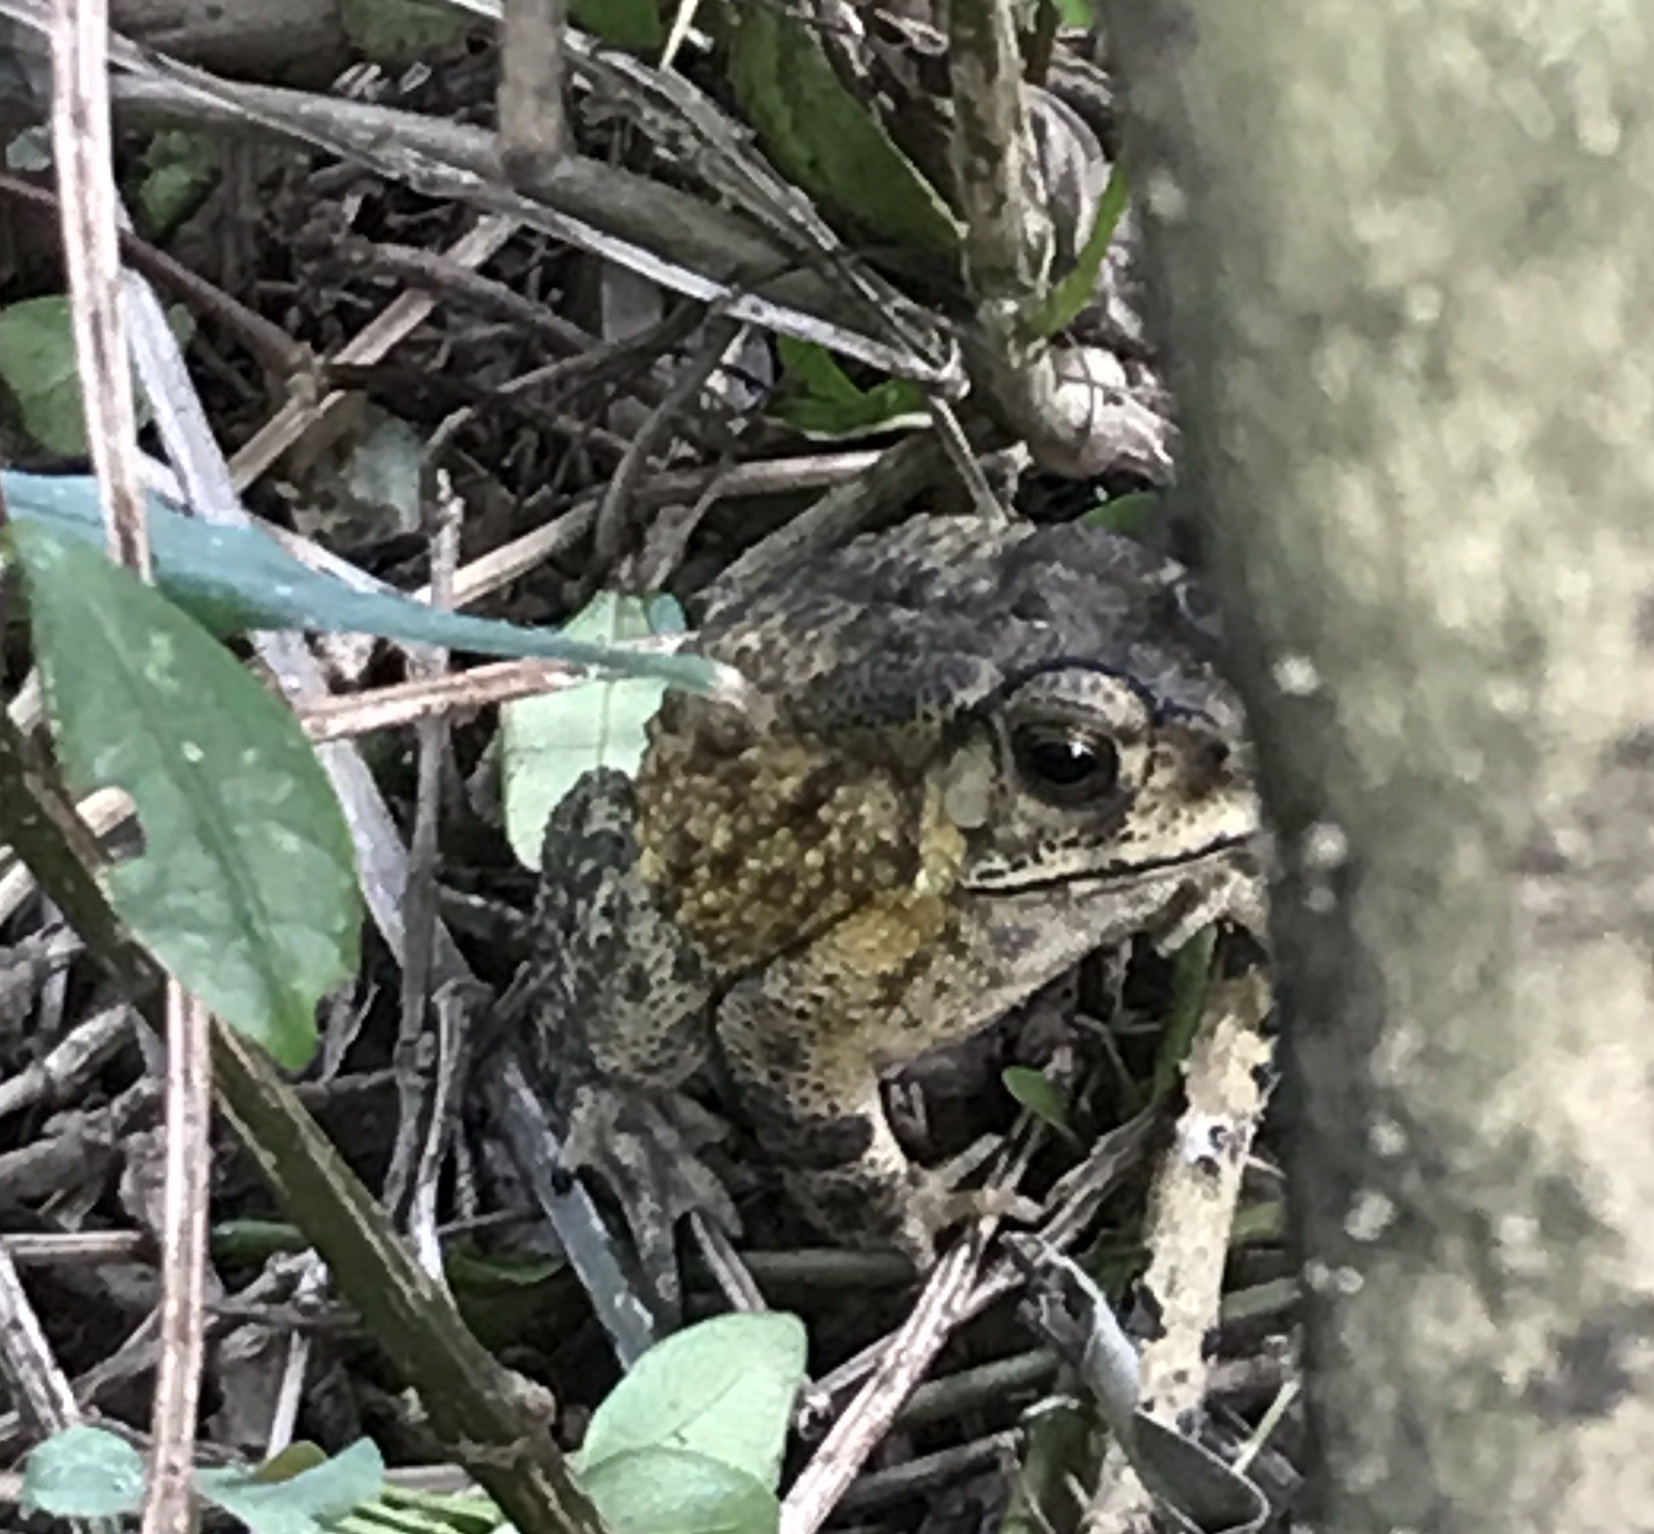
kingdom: Animalia
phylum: Chordata
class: Amphibia
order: Anura
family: Bufonidae
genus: Duttaphrynus
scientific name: Duttaphrynus melanostictus
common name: Common sunda toad
